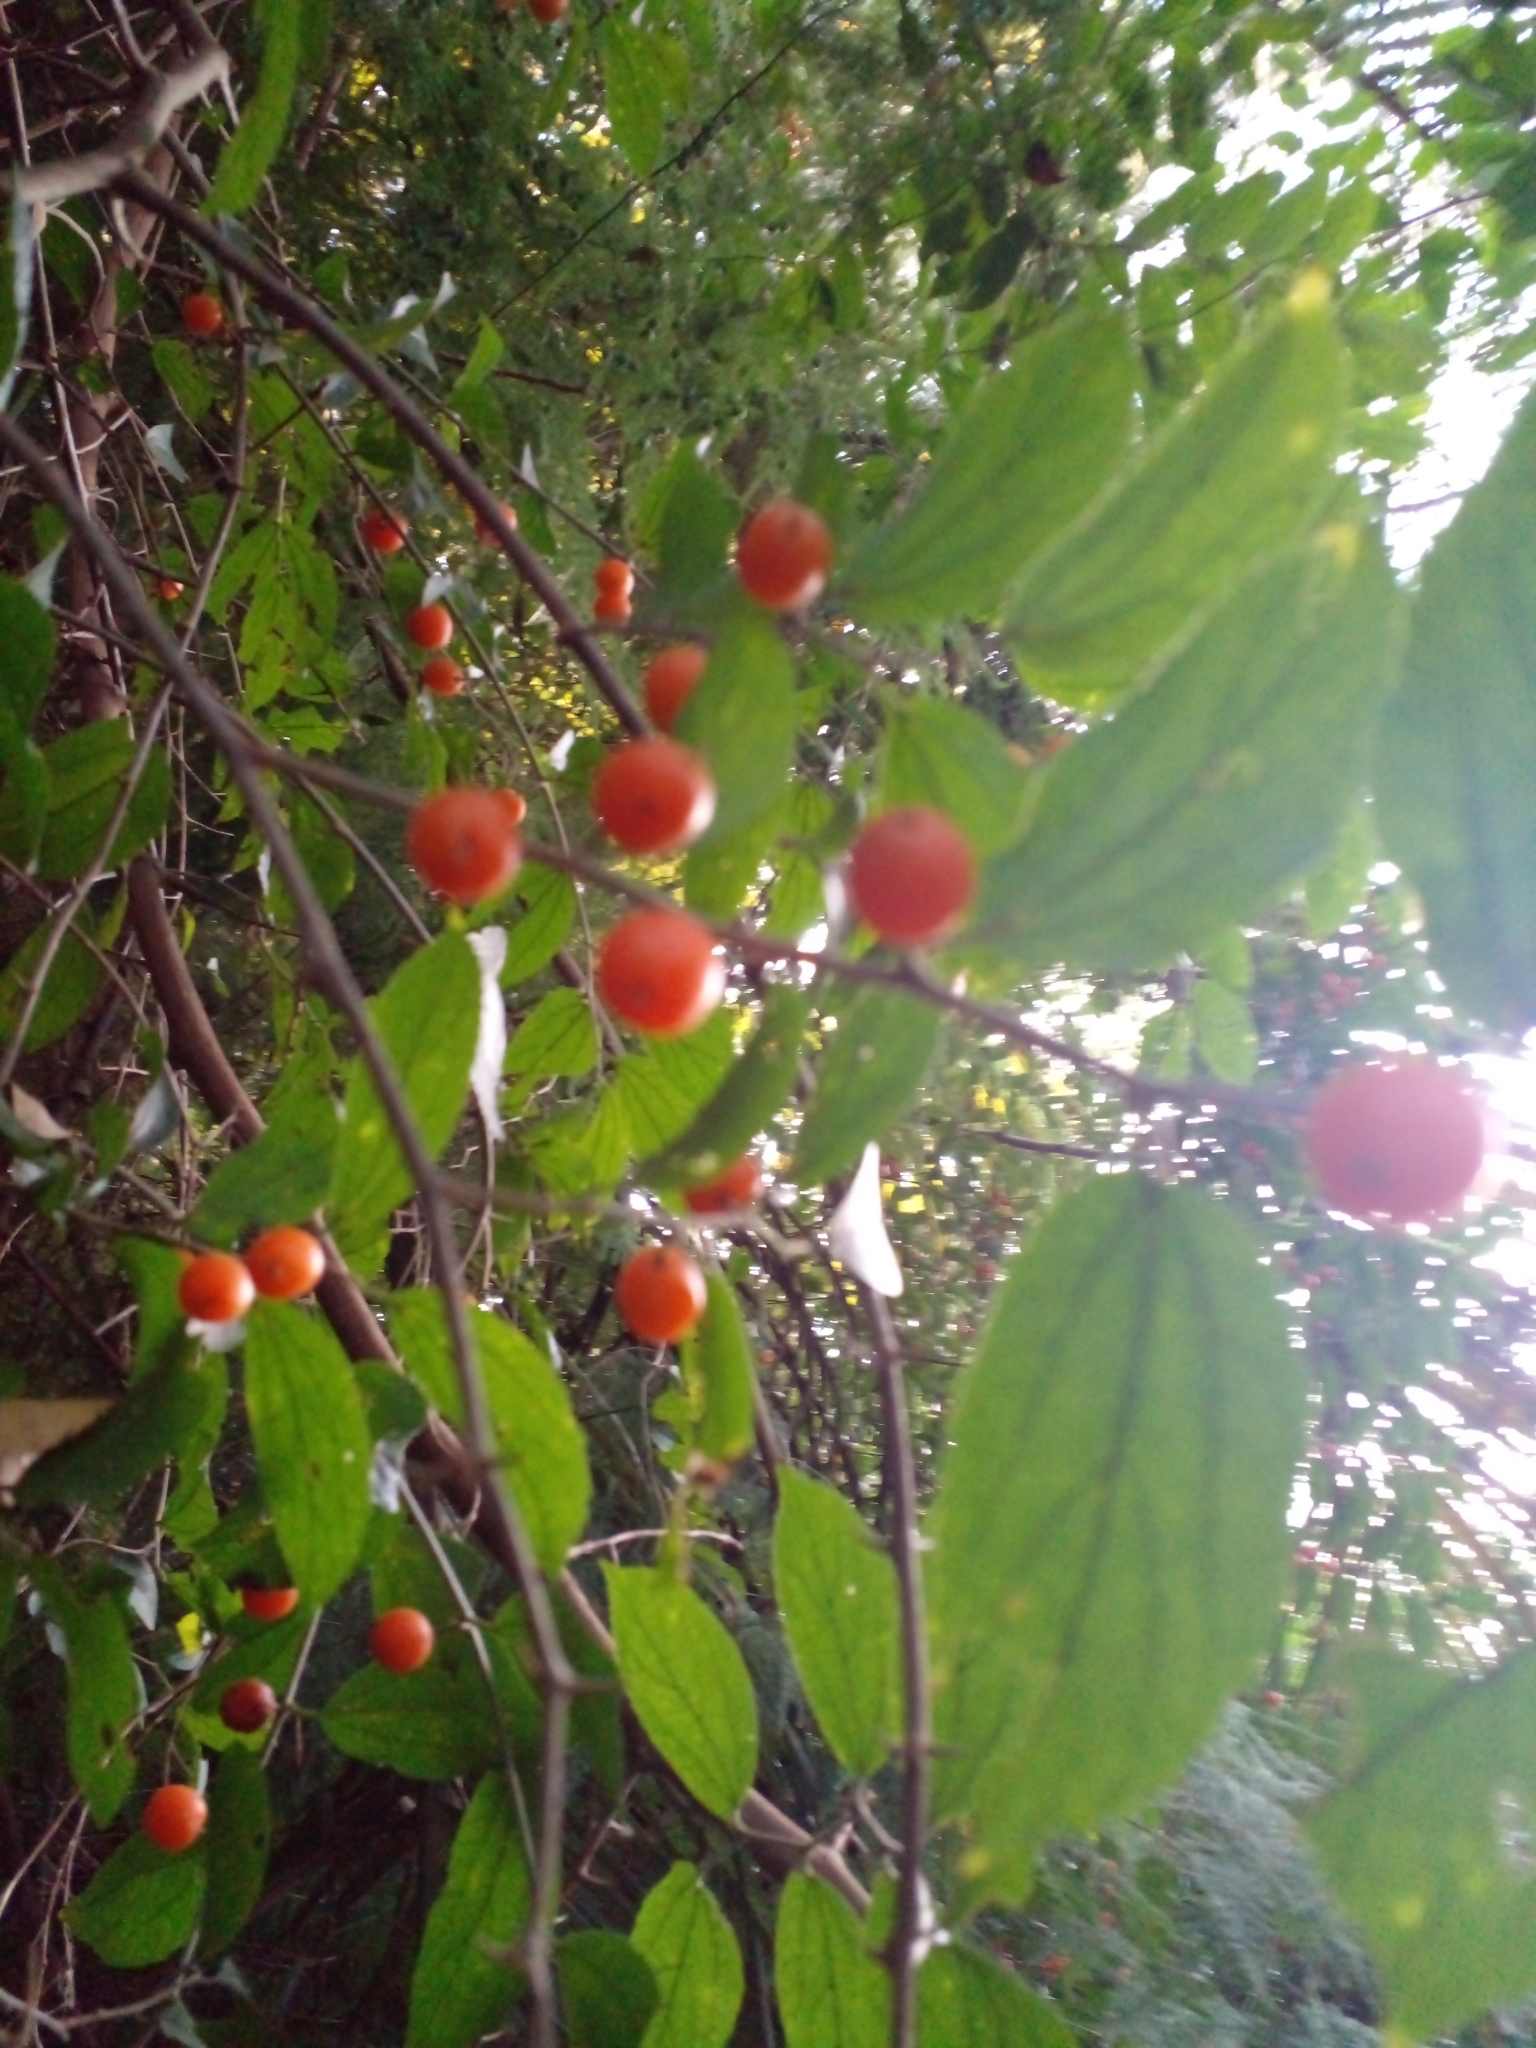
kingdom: Plantae
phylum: Tracheophyta
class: Magnoliopsida
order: Rosales
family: Cannabaceae
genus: Celtis
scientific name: Celtis iguanaea
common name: Iguana hackberry
